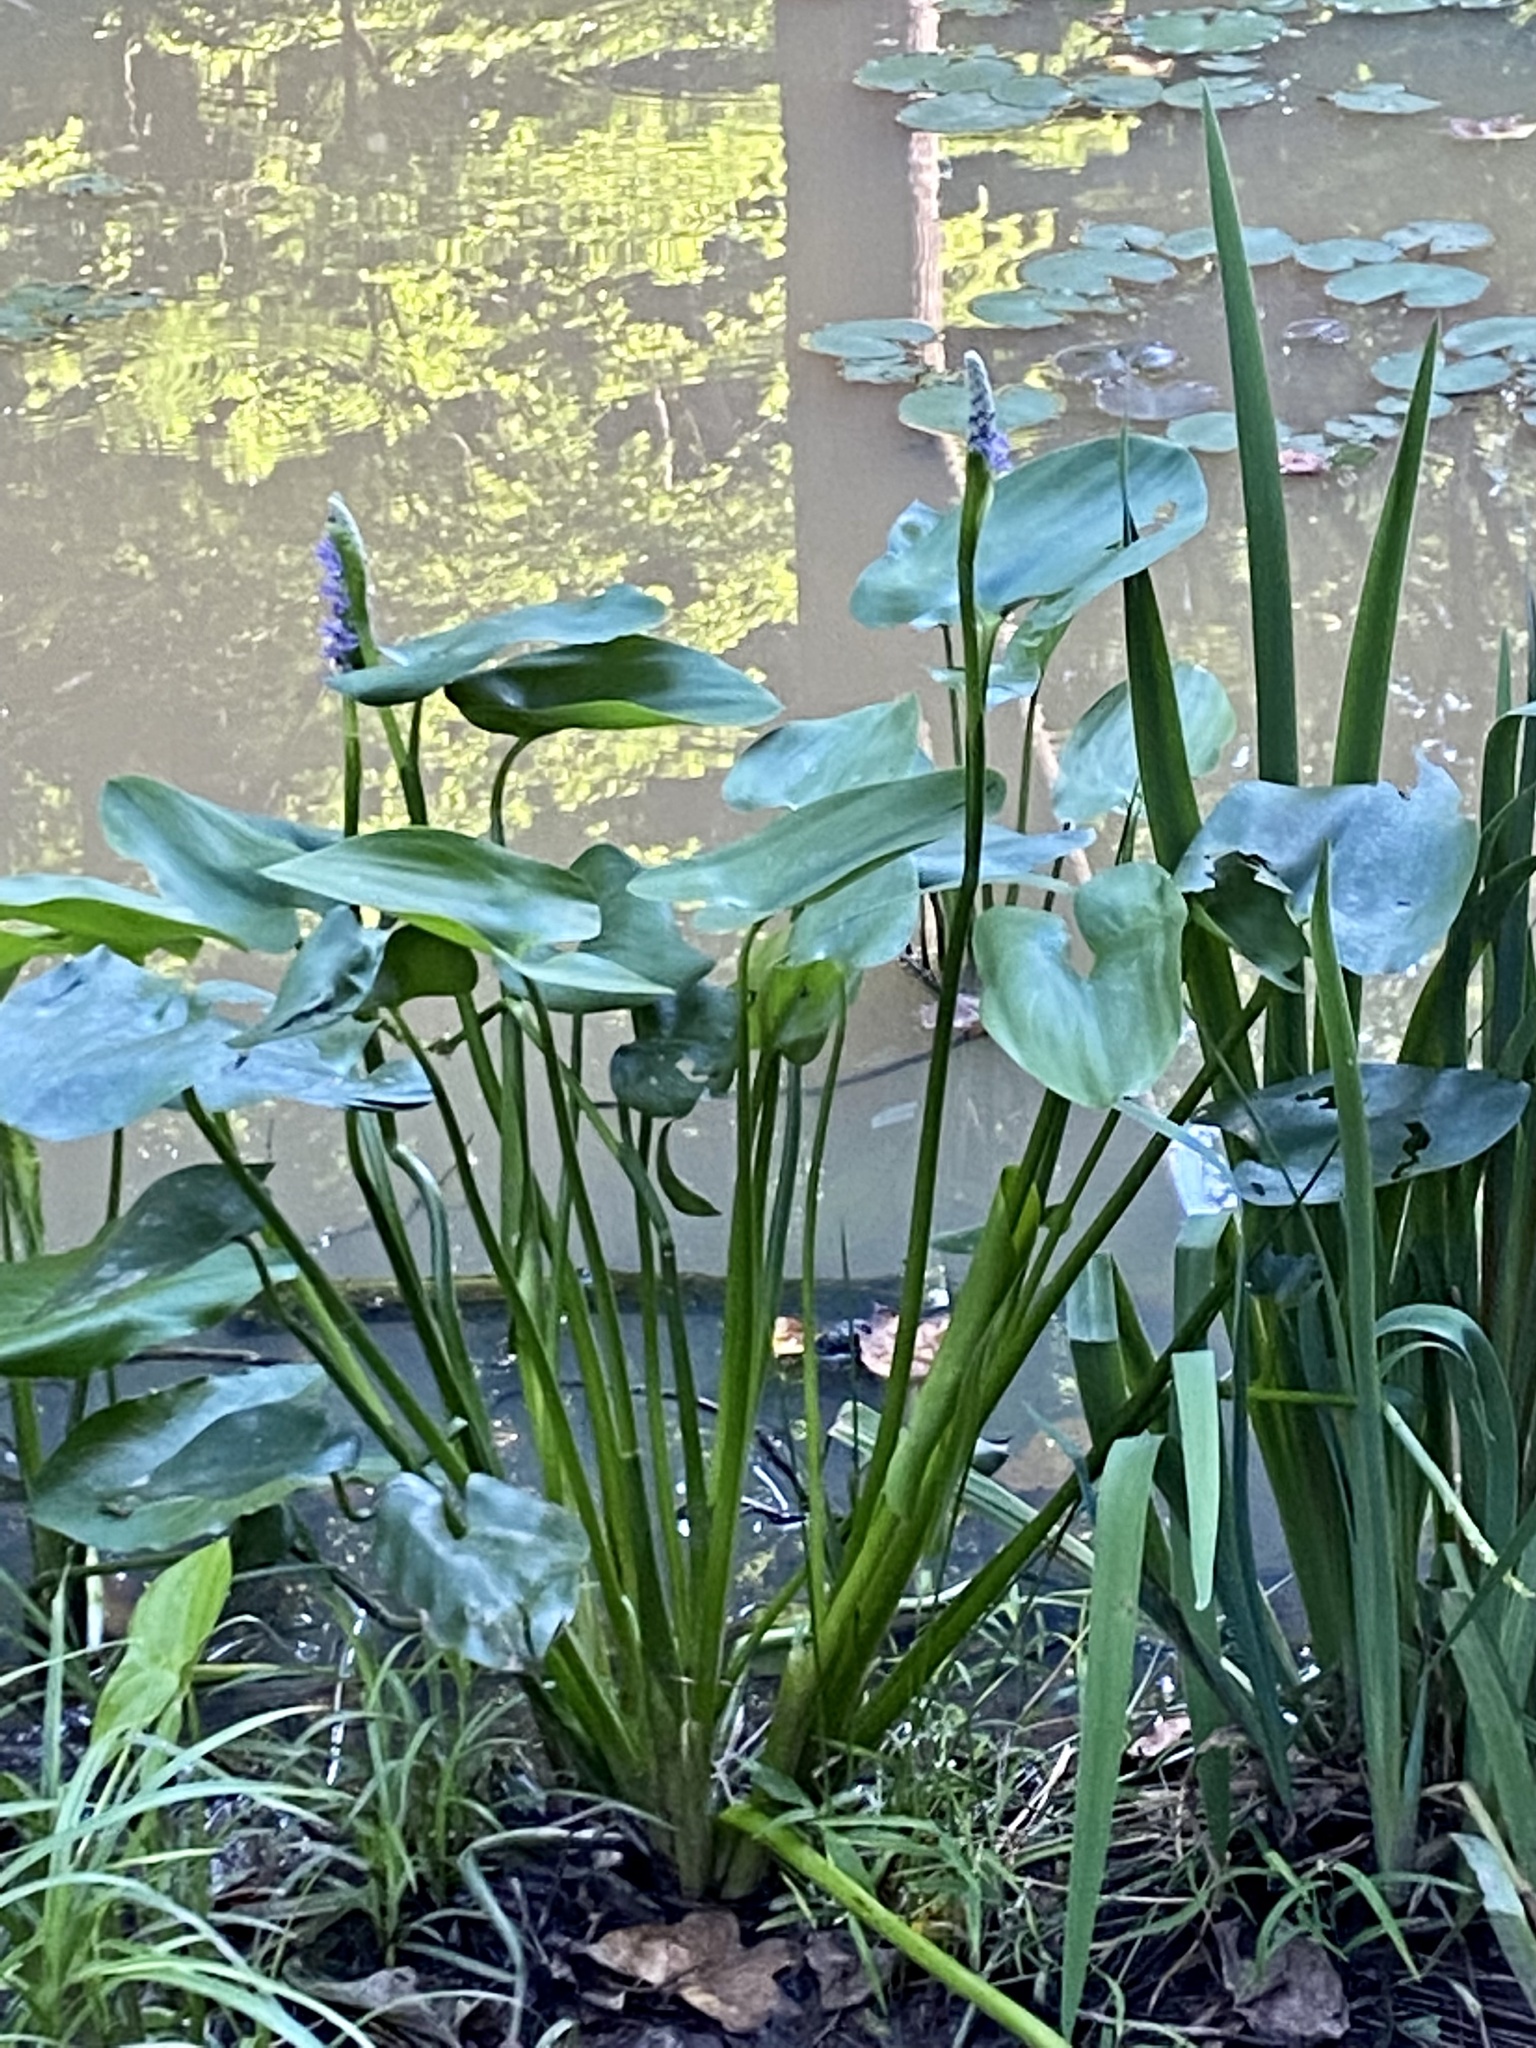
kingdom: Plantae
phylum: Tracheophyta
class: Liliopsida
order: Commelinales
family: Pontederiaceae
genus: Pontederia
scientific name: Pontederia cordata
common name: Pickerelweed
